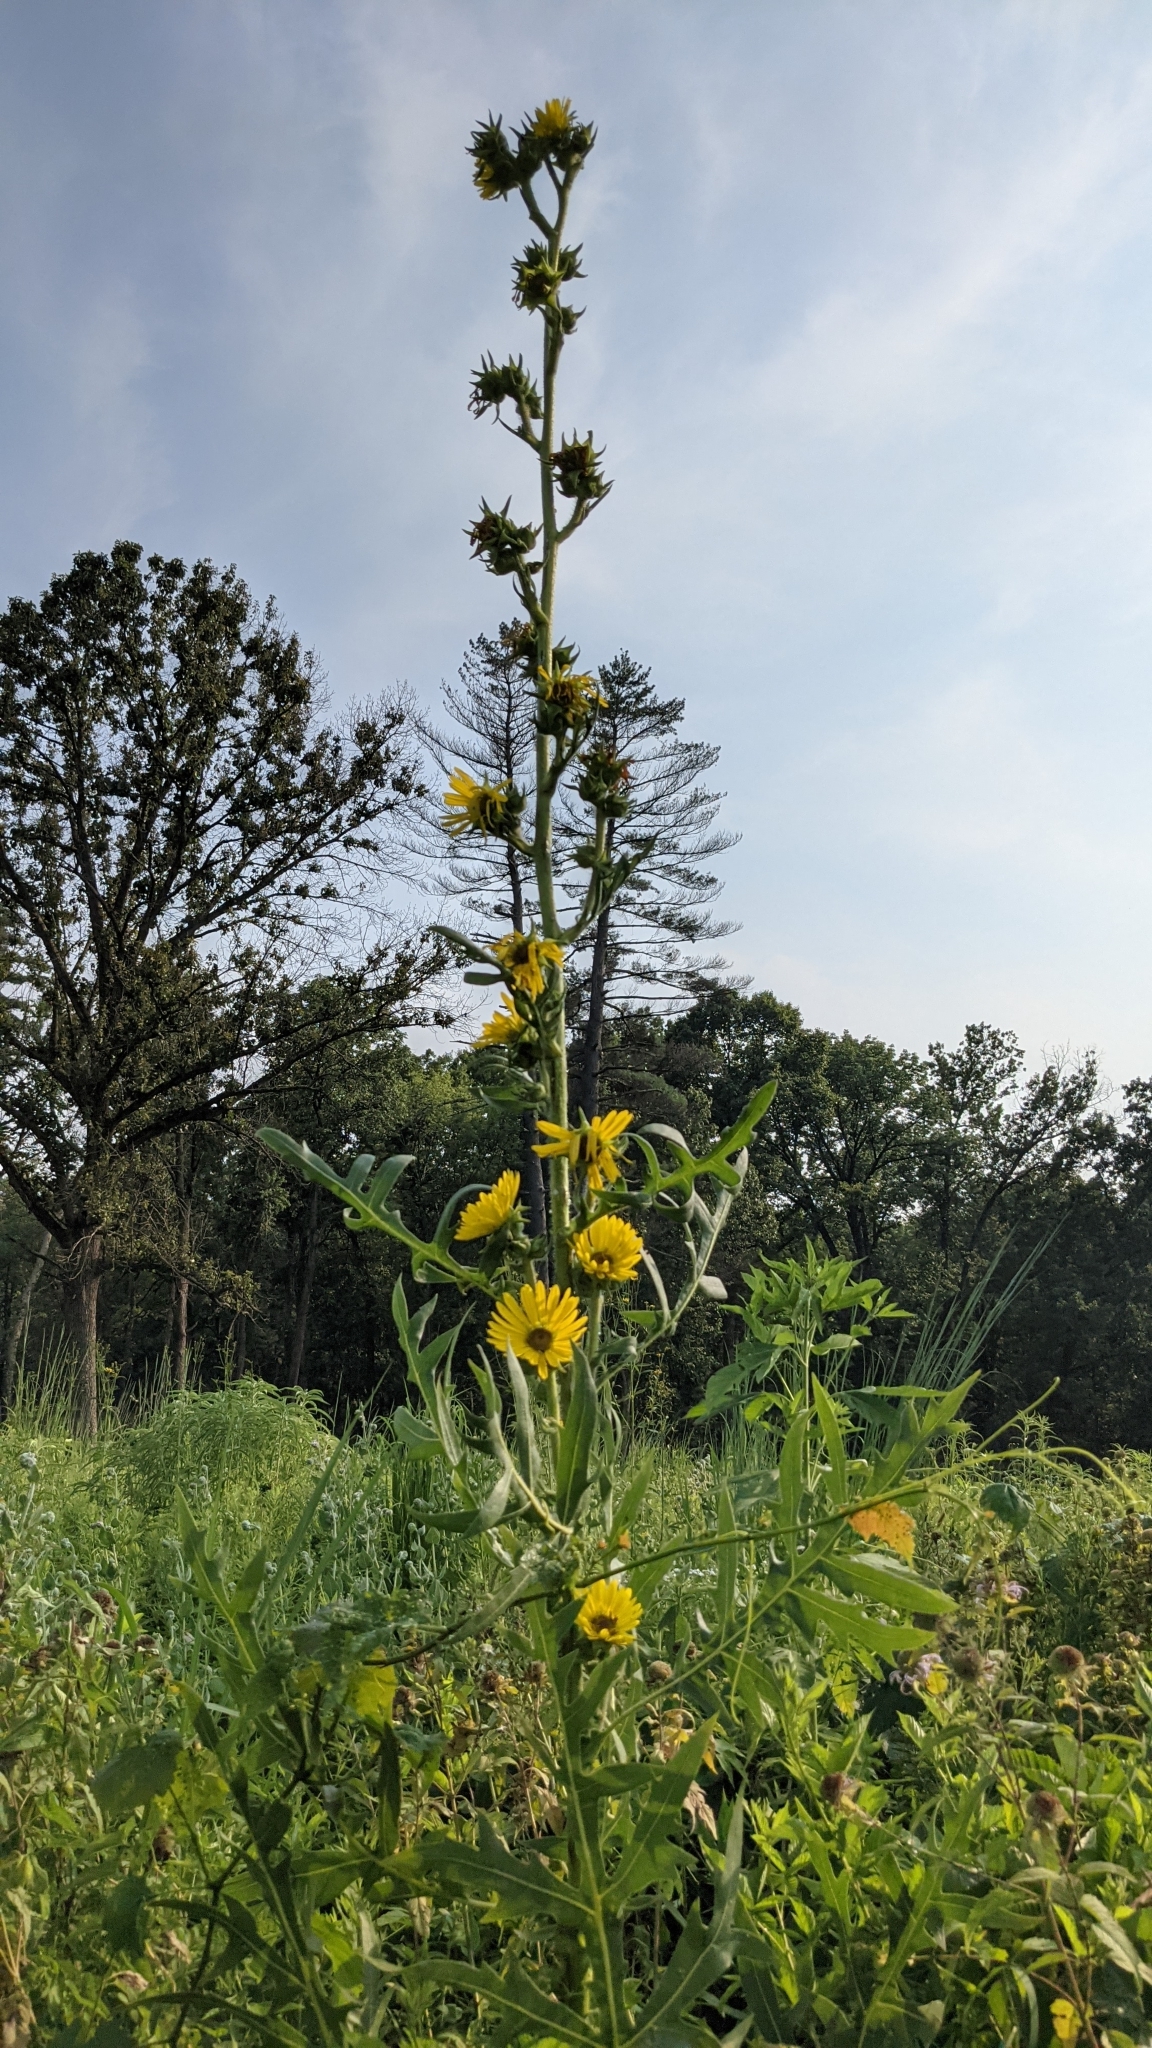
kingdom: Plantae
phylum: Tracheophyta
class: Magnoliopsida
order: Asterales
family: Asteraceae
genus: Silphium
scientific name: Silphium laciniatum
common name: Polarplant
